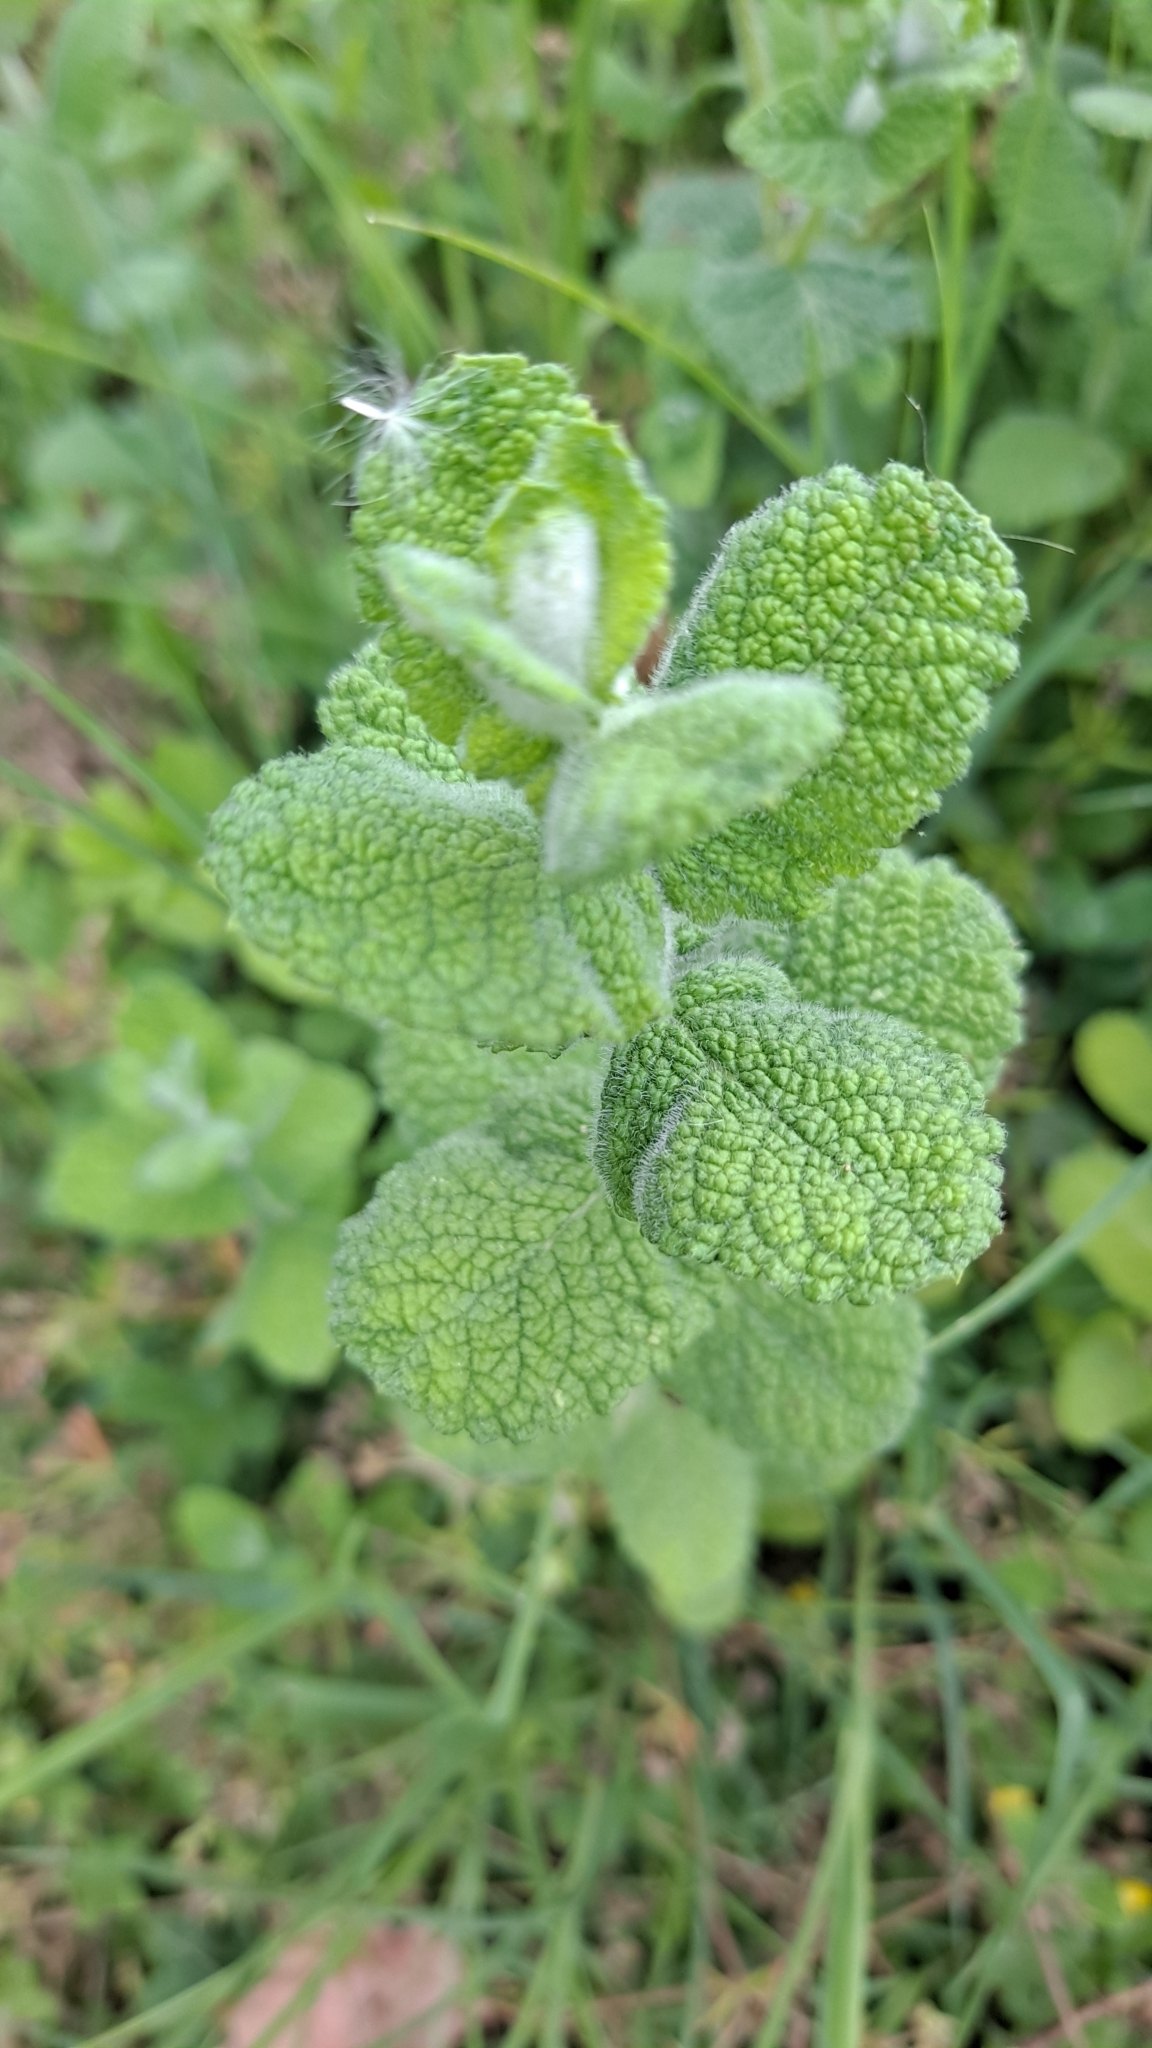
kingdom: Plantae
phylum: Tracheophyta
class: Magnoliopsida
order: Lamiales
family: Lamiaceae
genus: Mentha
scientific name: Mentha suaveolens
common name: Apple mint
